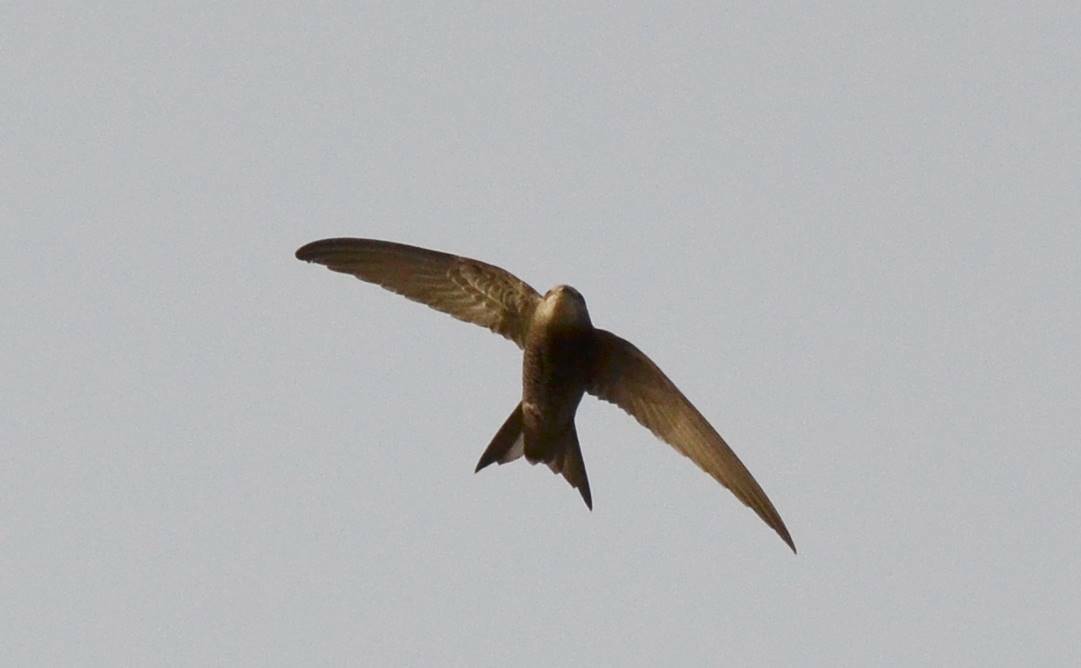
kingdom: Animalia
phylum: Chordata
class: Aves
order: Apodiformes
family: Apodidae
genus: Apus
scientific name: Apus pallidus
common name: Pallid swift
